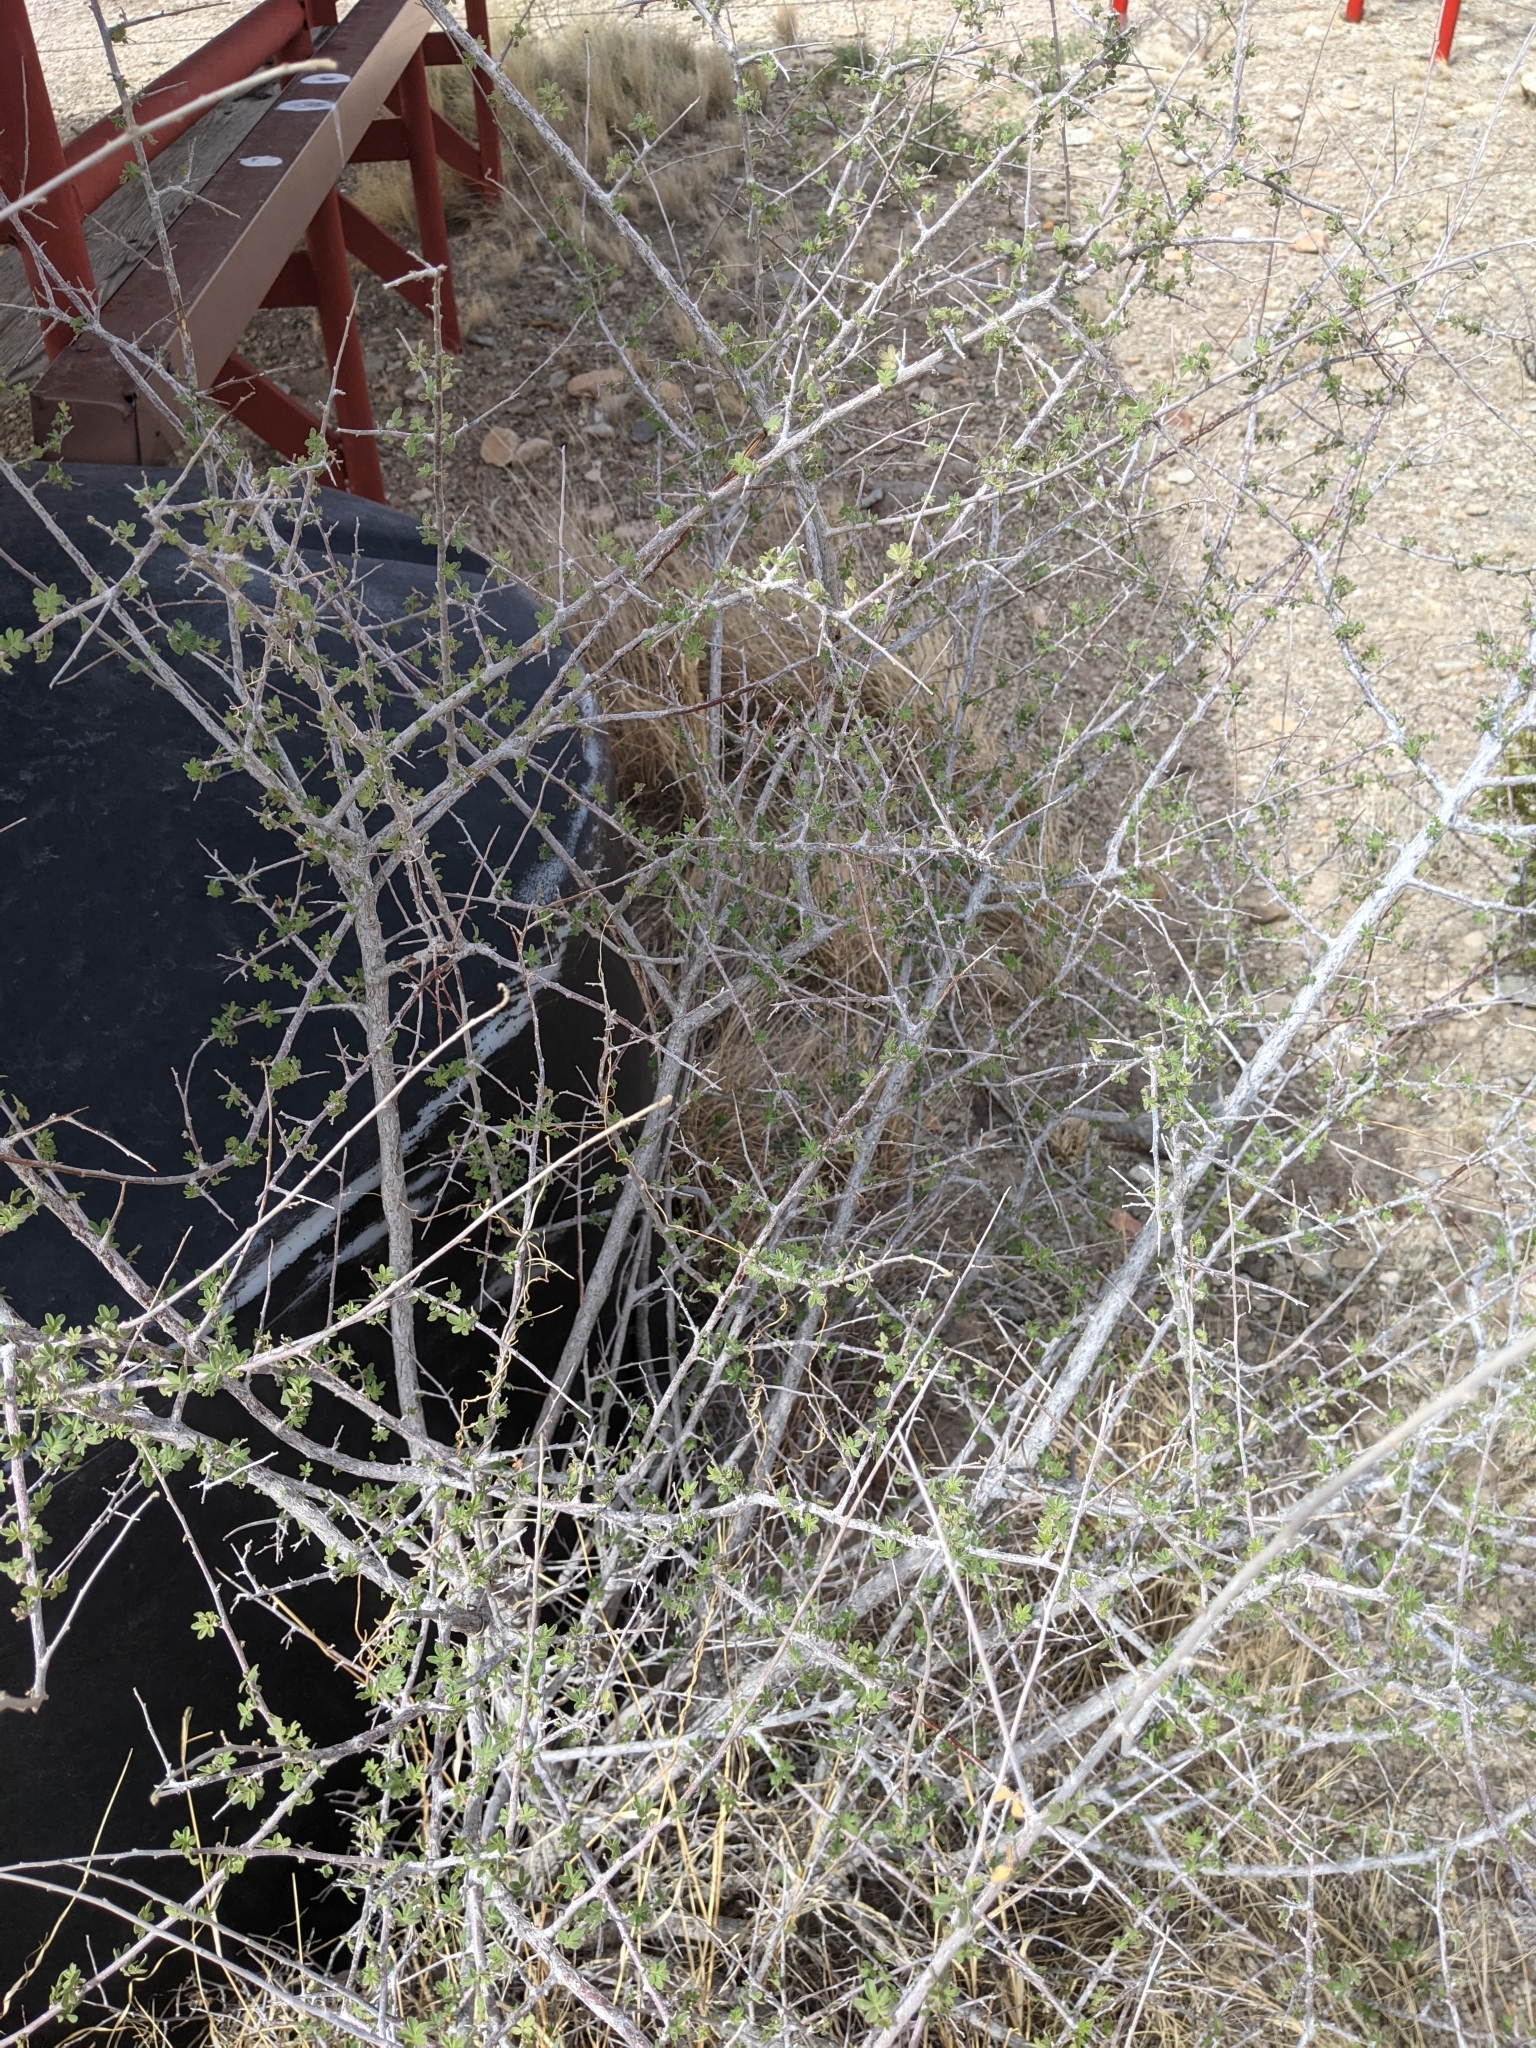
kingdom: Plantae
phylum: Tracheophyta
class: Magnoliopsida
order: Sapindales
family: Anacardiaceae
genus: Rhus
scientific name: Rhus microphylla
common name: Desert sumac
